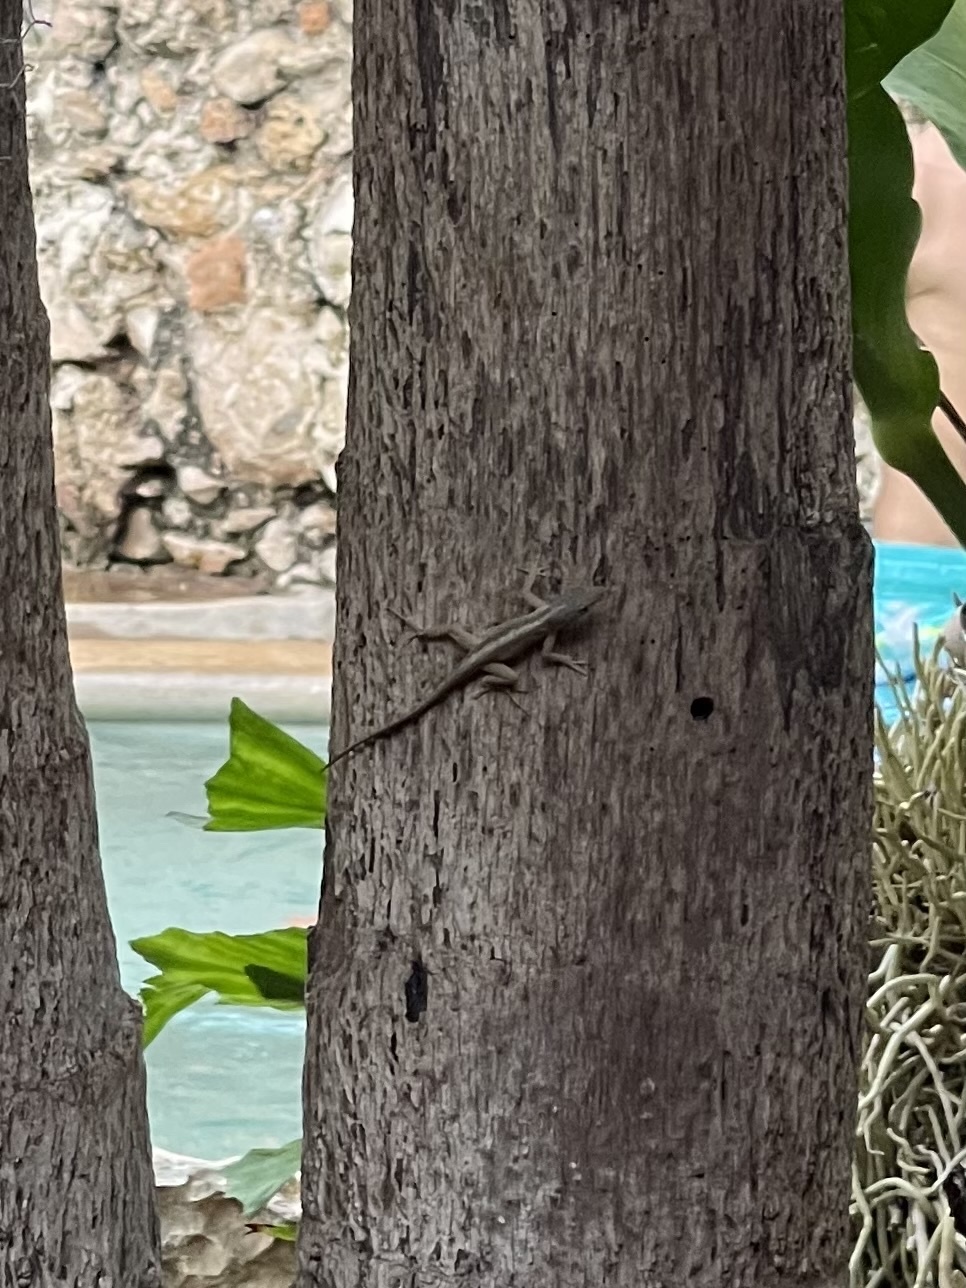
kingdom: Animalia
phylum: Chordata
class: Squamata
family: Dactyloidae
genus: Anolis
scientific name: Anolis sagrei
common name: Brown anole
